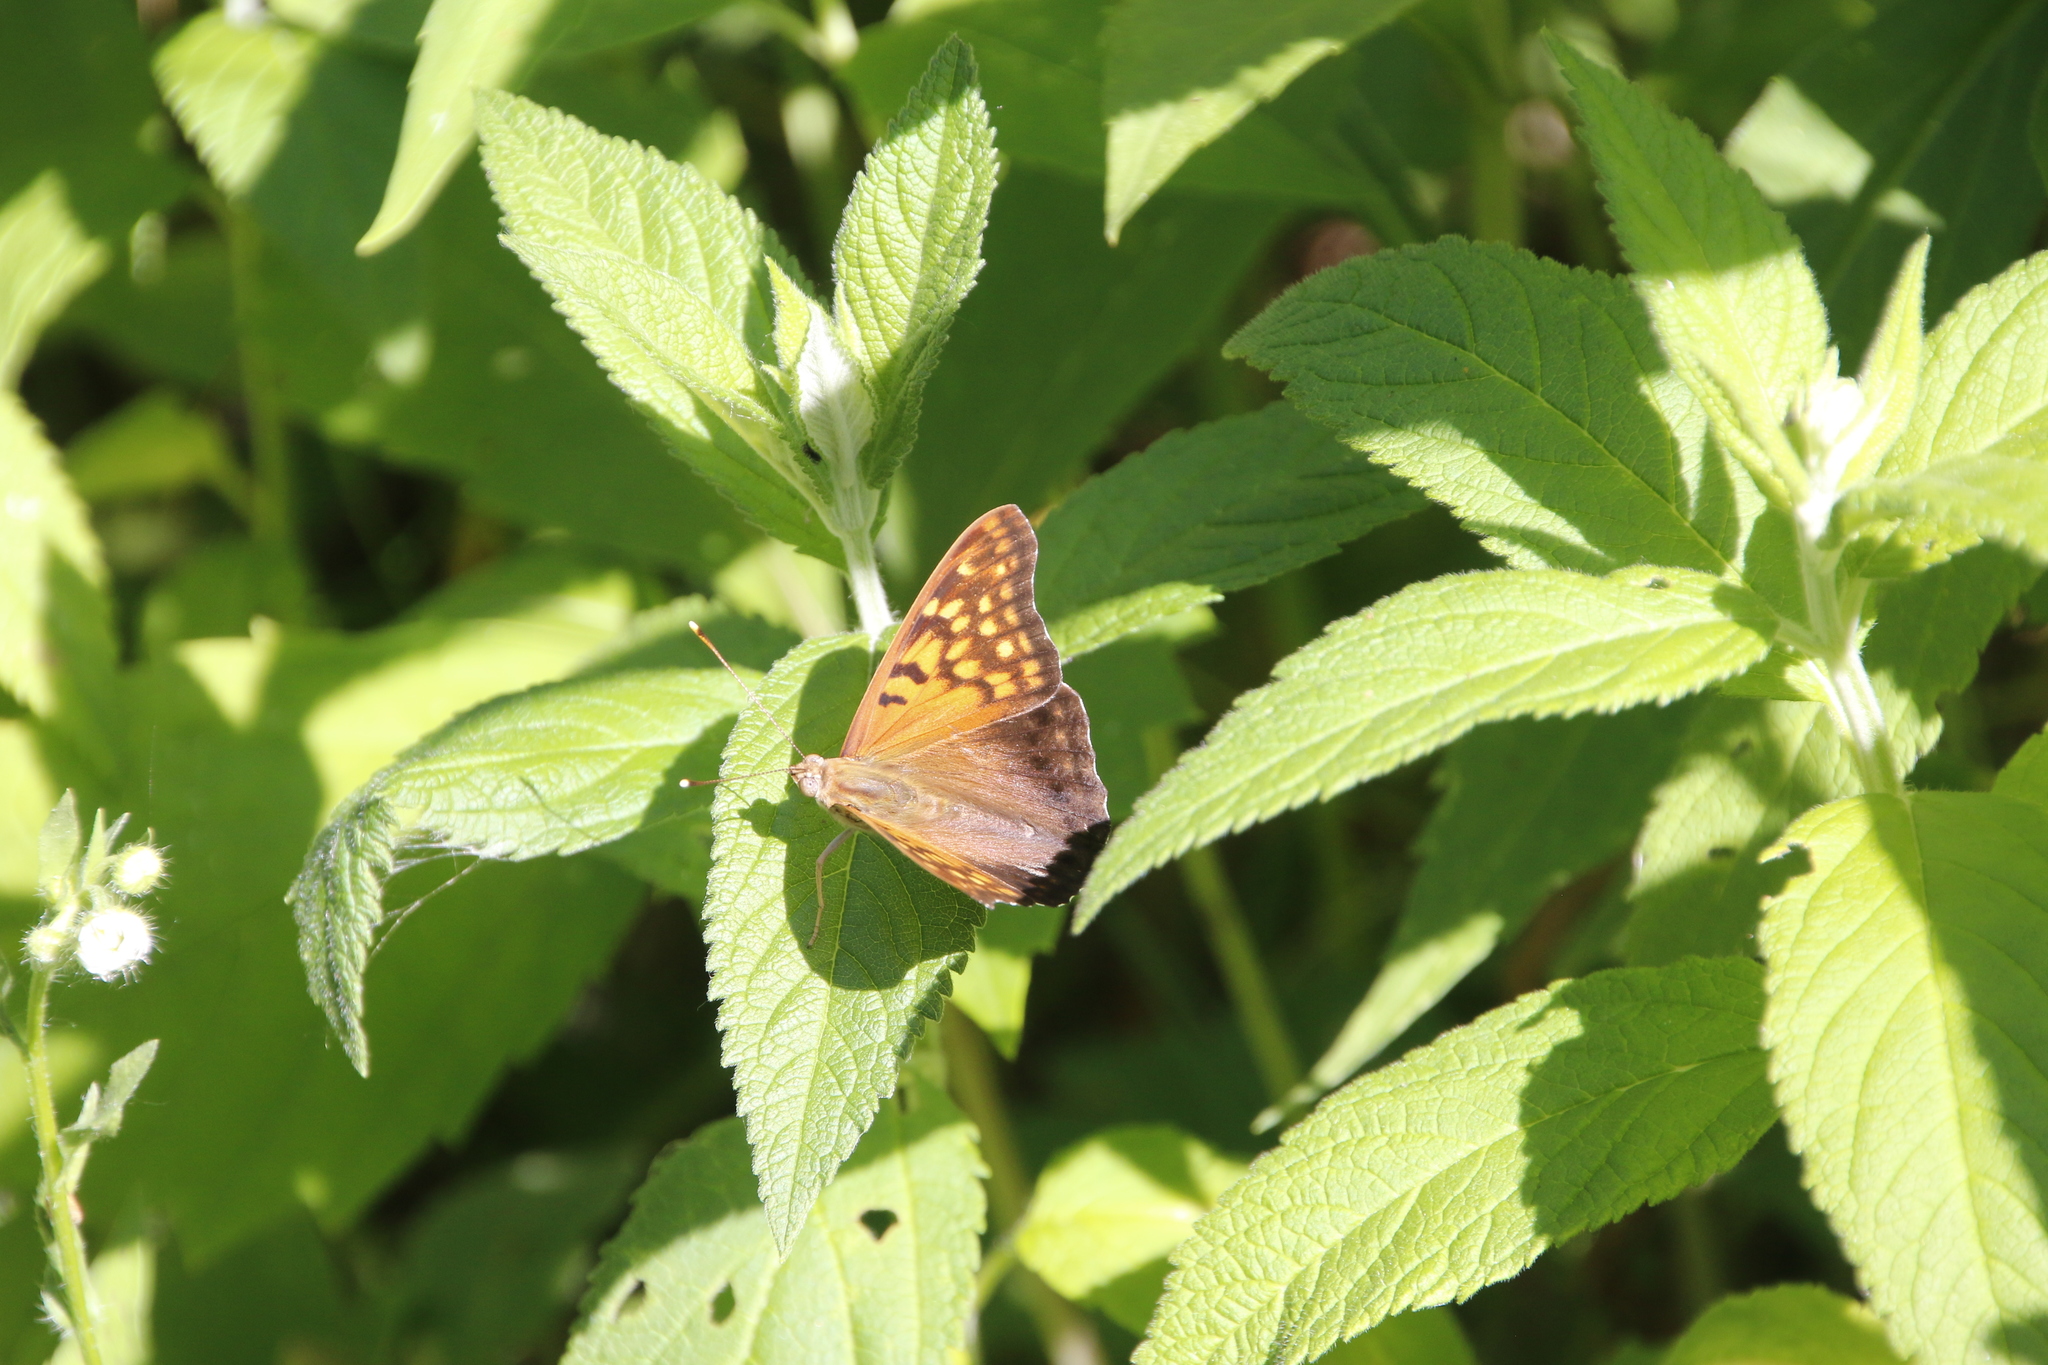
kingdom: Animalia
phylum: Arthropoda
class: Insecta
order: Lepidoptera
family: Nymphalidae
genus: Asterocampa
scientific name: Asterocampa clyton
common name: Tawny emperor
